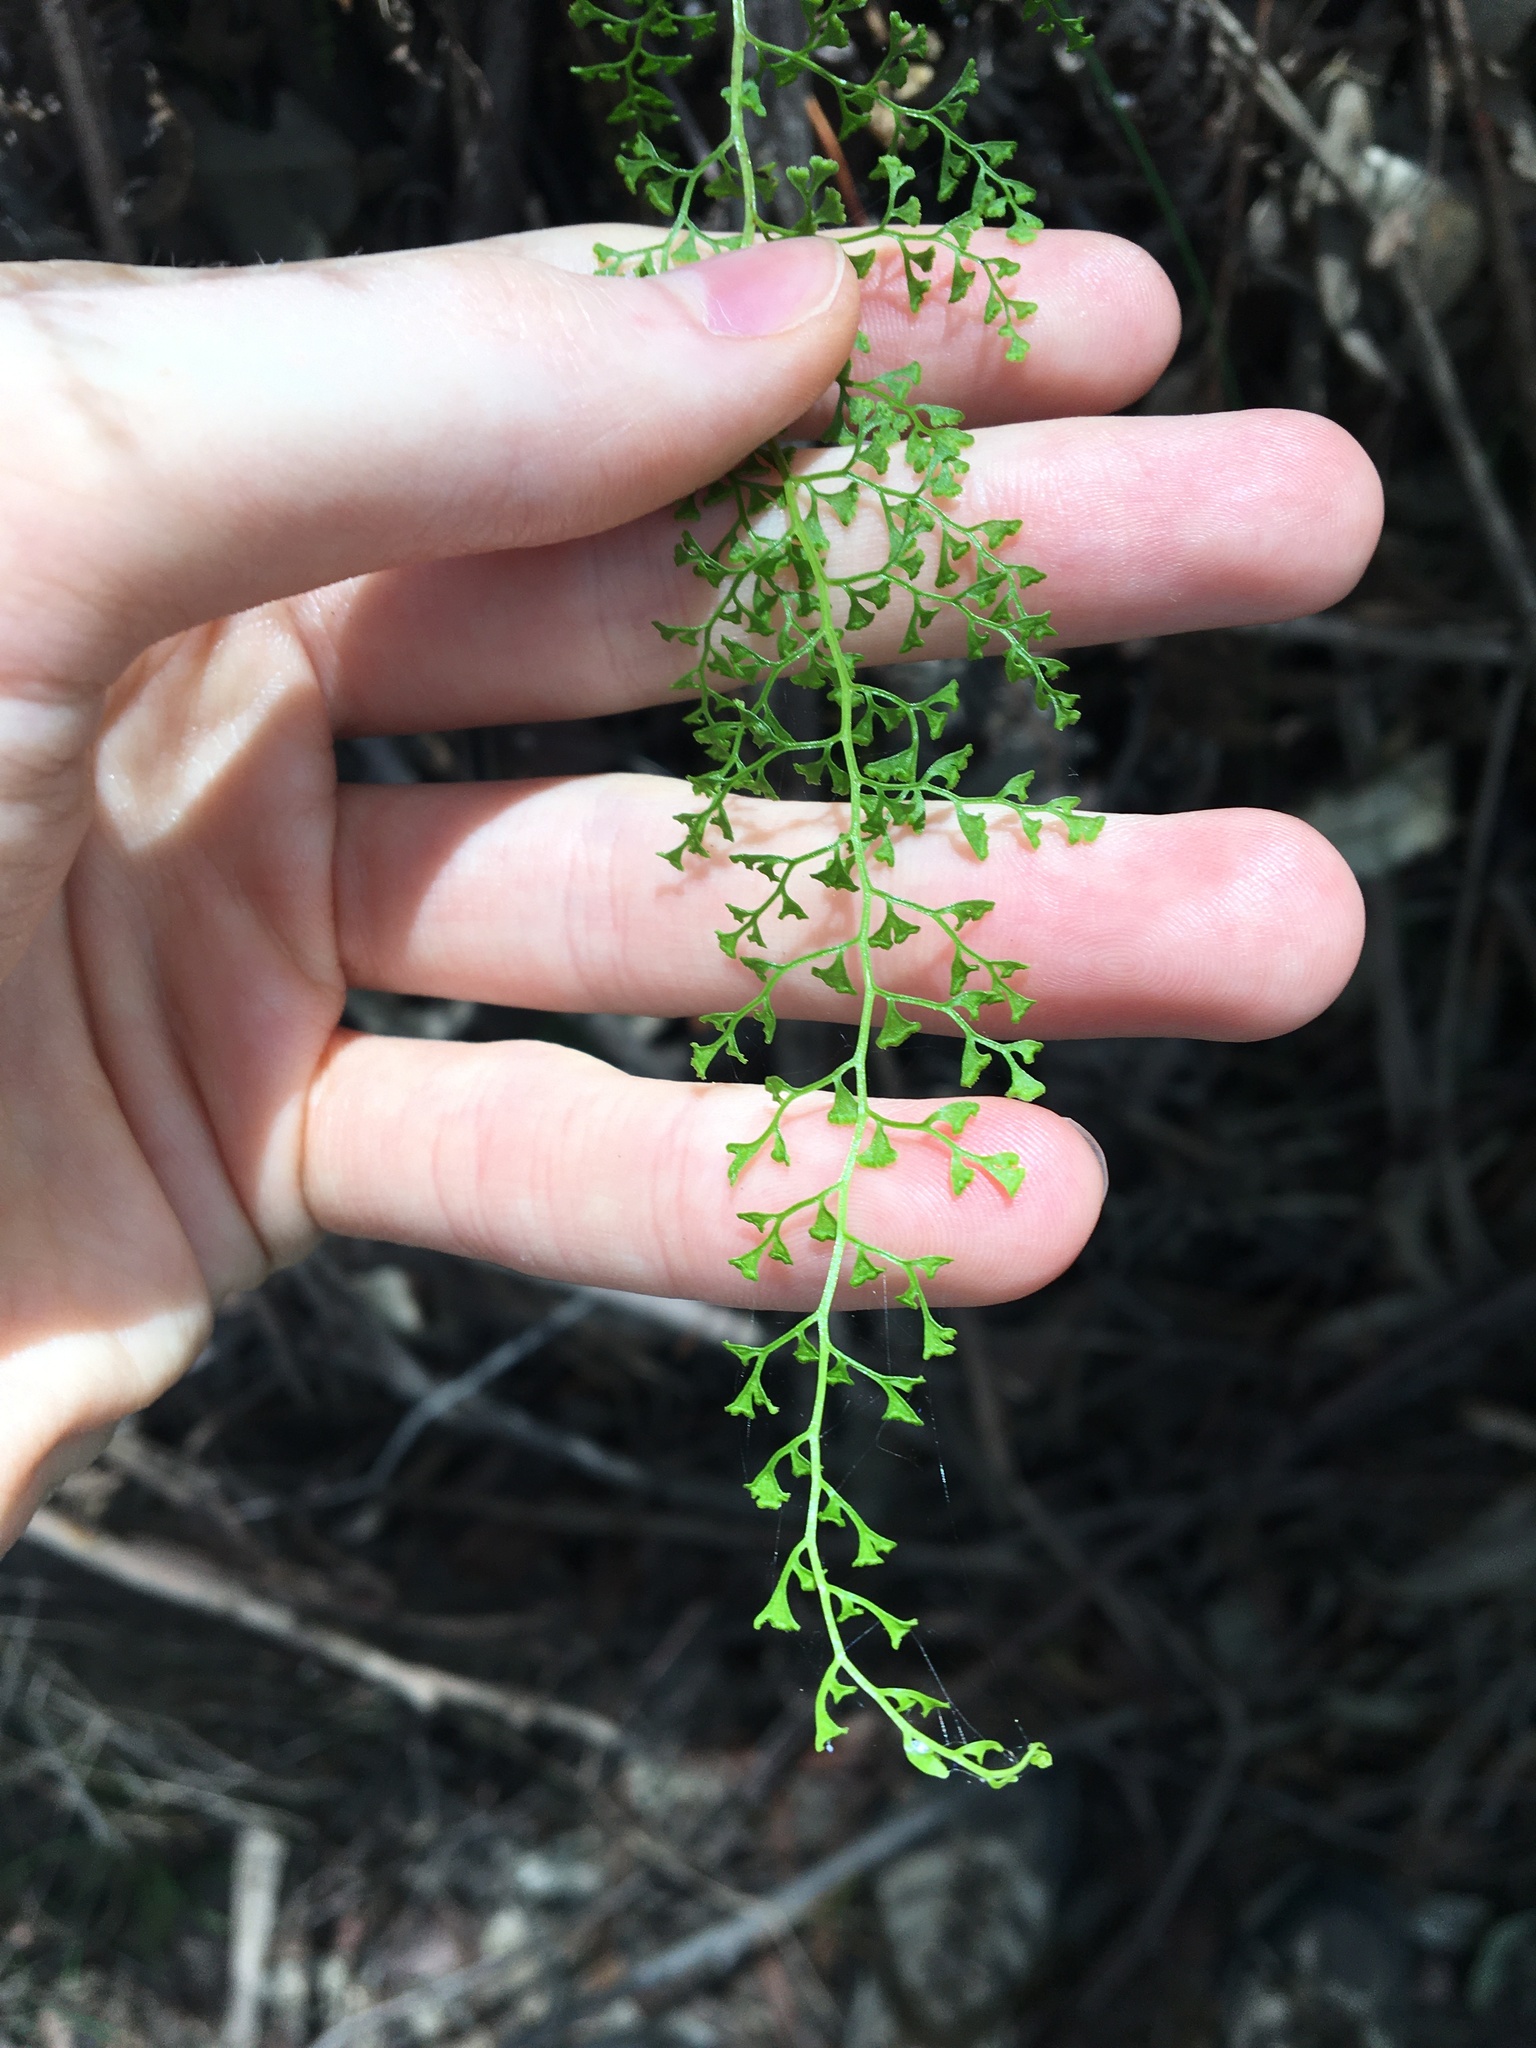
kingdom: Plantae
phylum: Tracheophyta
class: Polypodiopsida
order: Polypodiales
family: Lindsaeaceae
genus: Lindsaea
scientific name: Lindsaea microphylla
